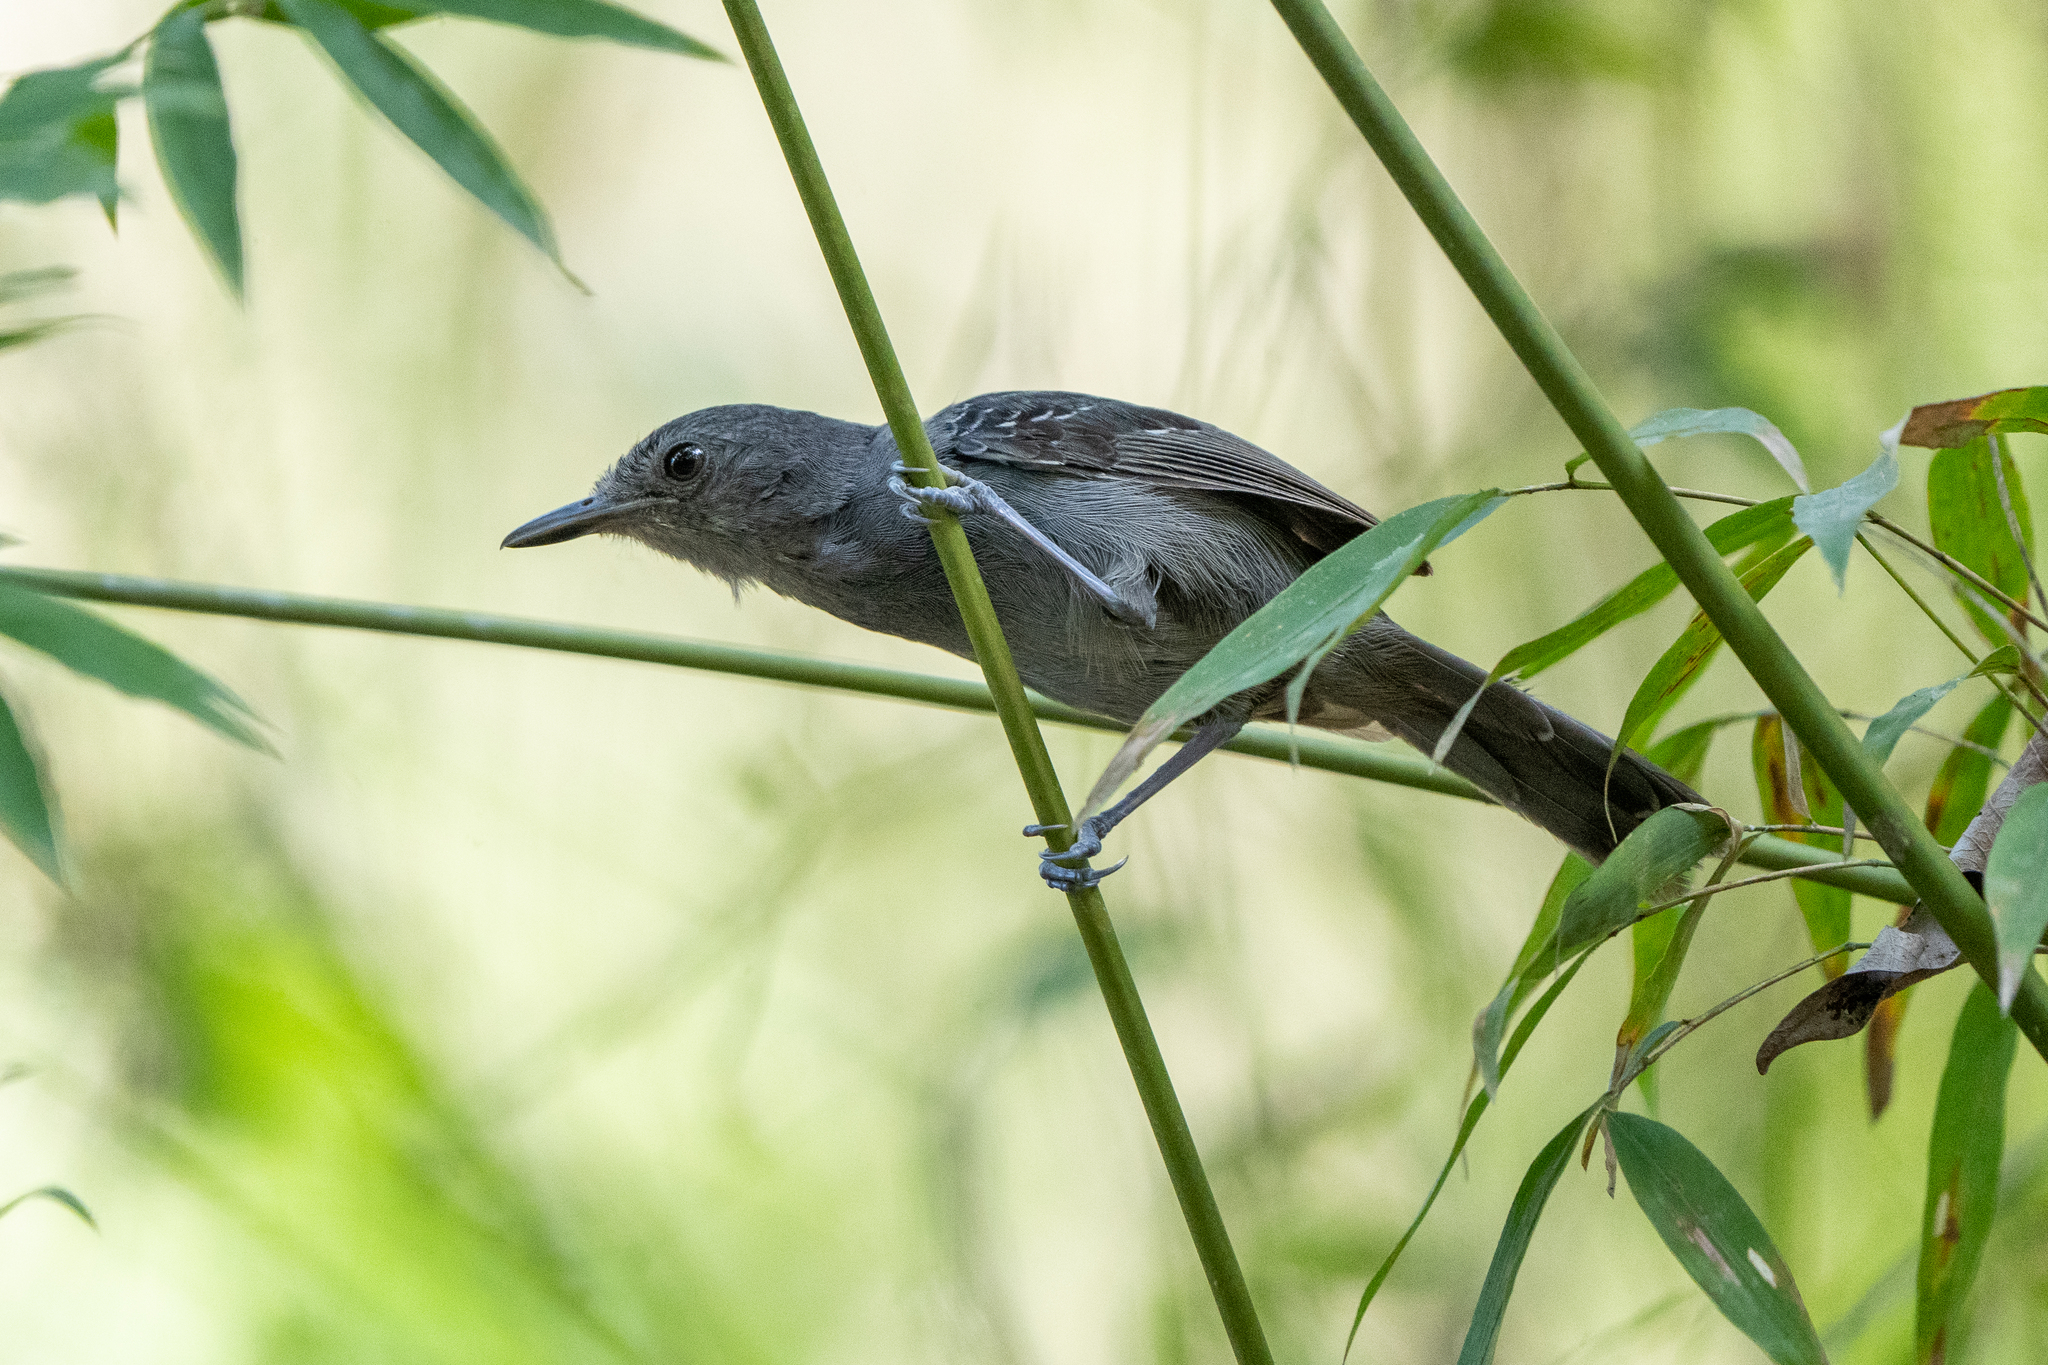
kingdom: Animalia
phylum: Chordata
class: Aves
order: Passeriformes
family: Thamnophilidae
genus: Cercomacra
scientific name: Cercomacra tyrannina
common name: Dusky antbird
